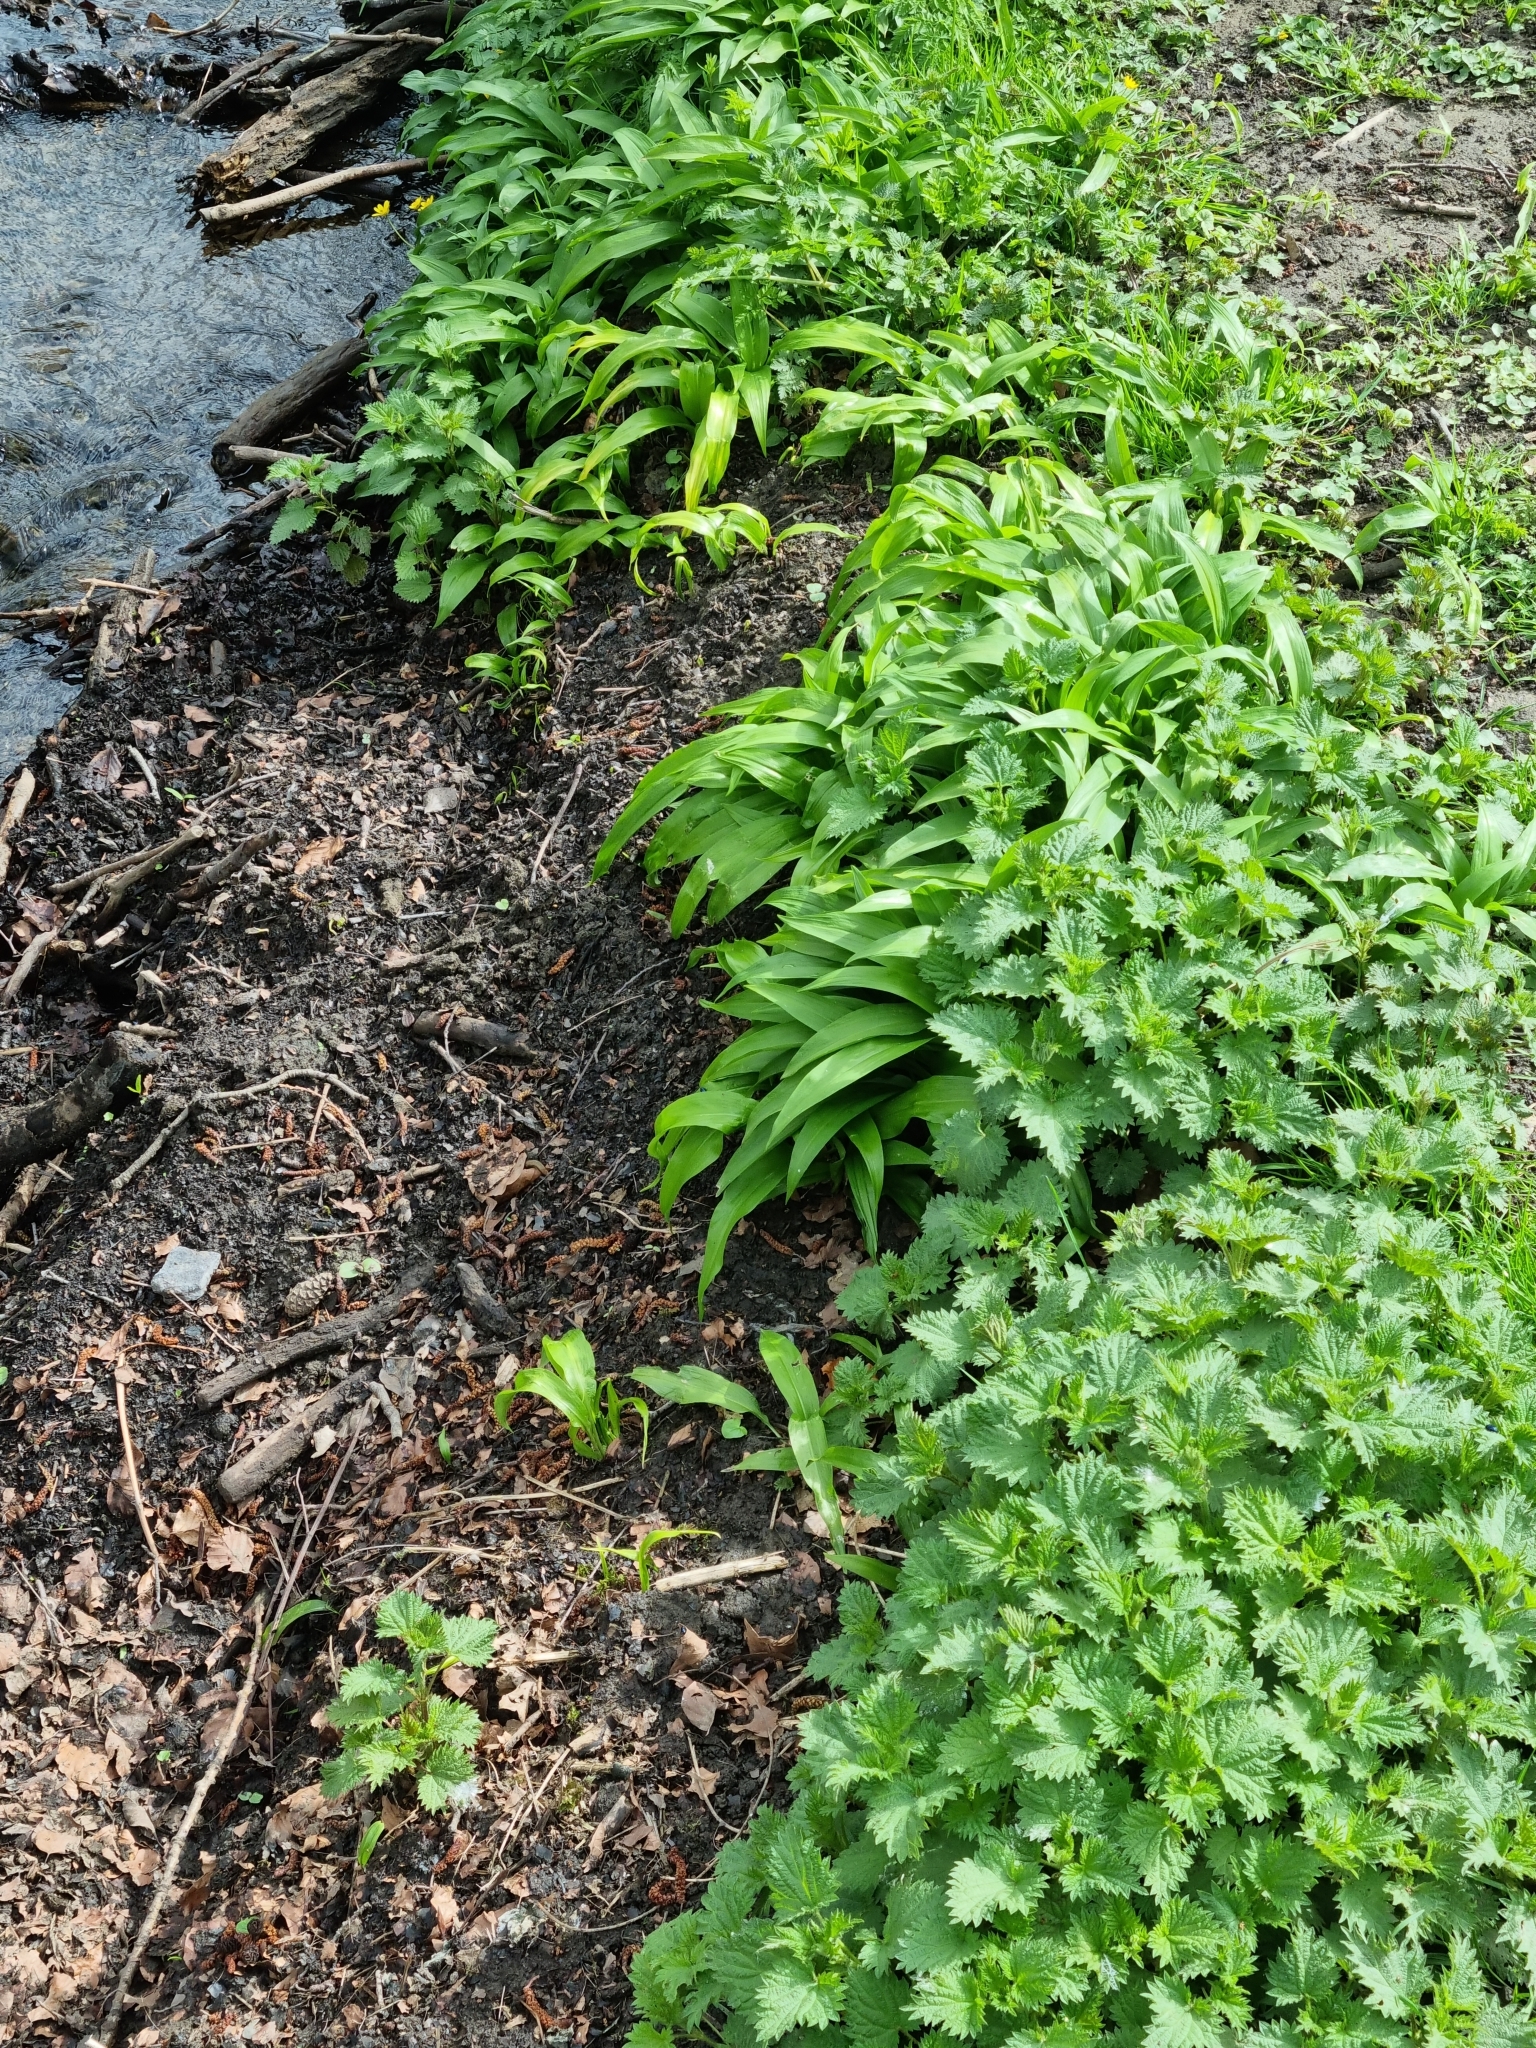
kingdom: Plantae
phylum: Tracheophyta
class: Liliopsida
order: Asparagales
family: Amaryllidaceae
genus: Allium
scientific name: Allium ursinum
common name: Ramsons
